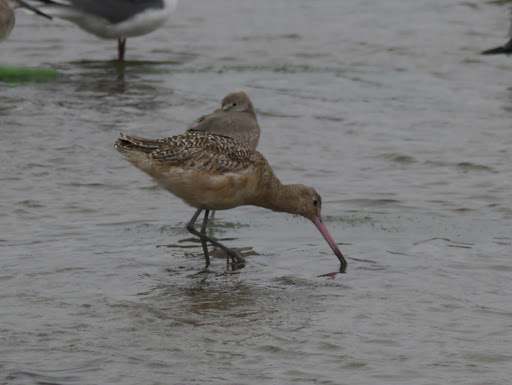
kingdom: Animalia
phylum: Chordata
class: Aves
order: Charadriiformes
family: Scolopacidae
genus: Limosa
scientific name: Limosa fedoa
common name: Marbled godwit
